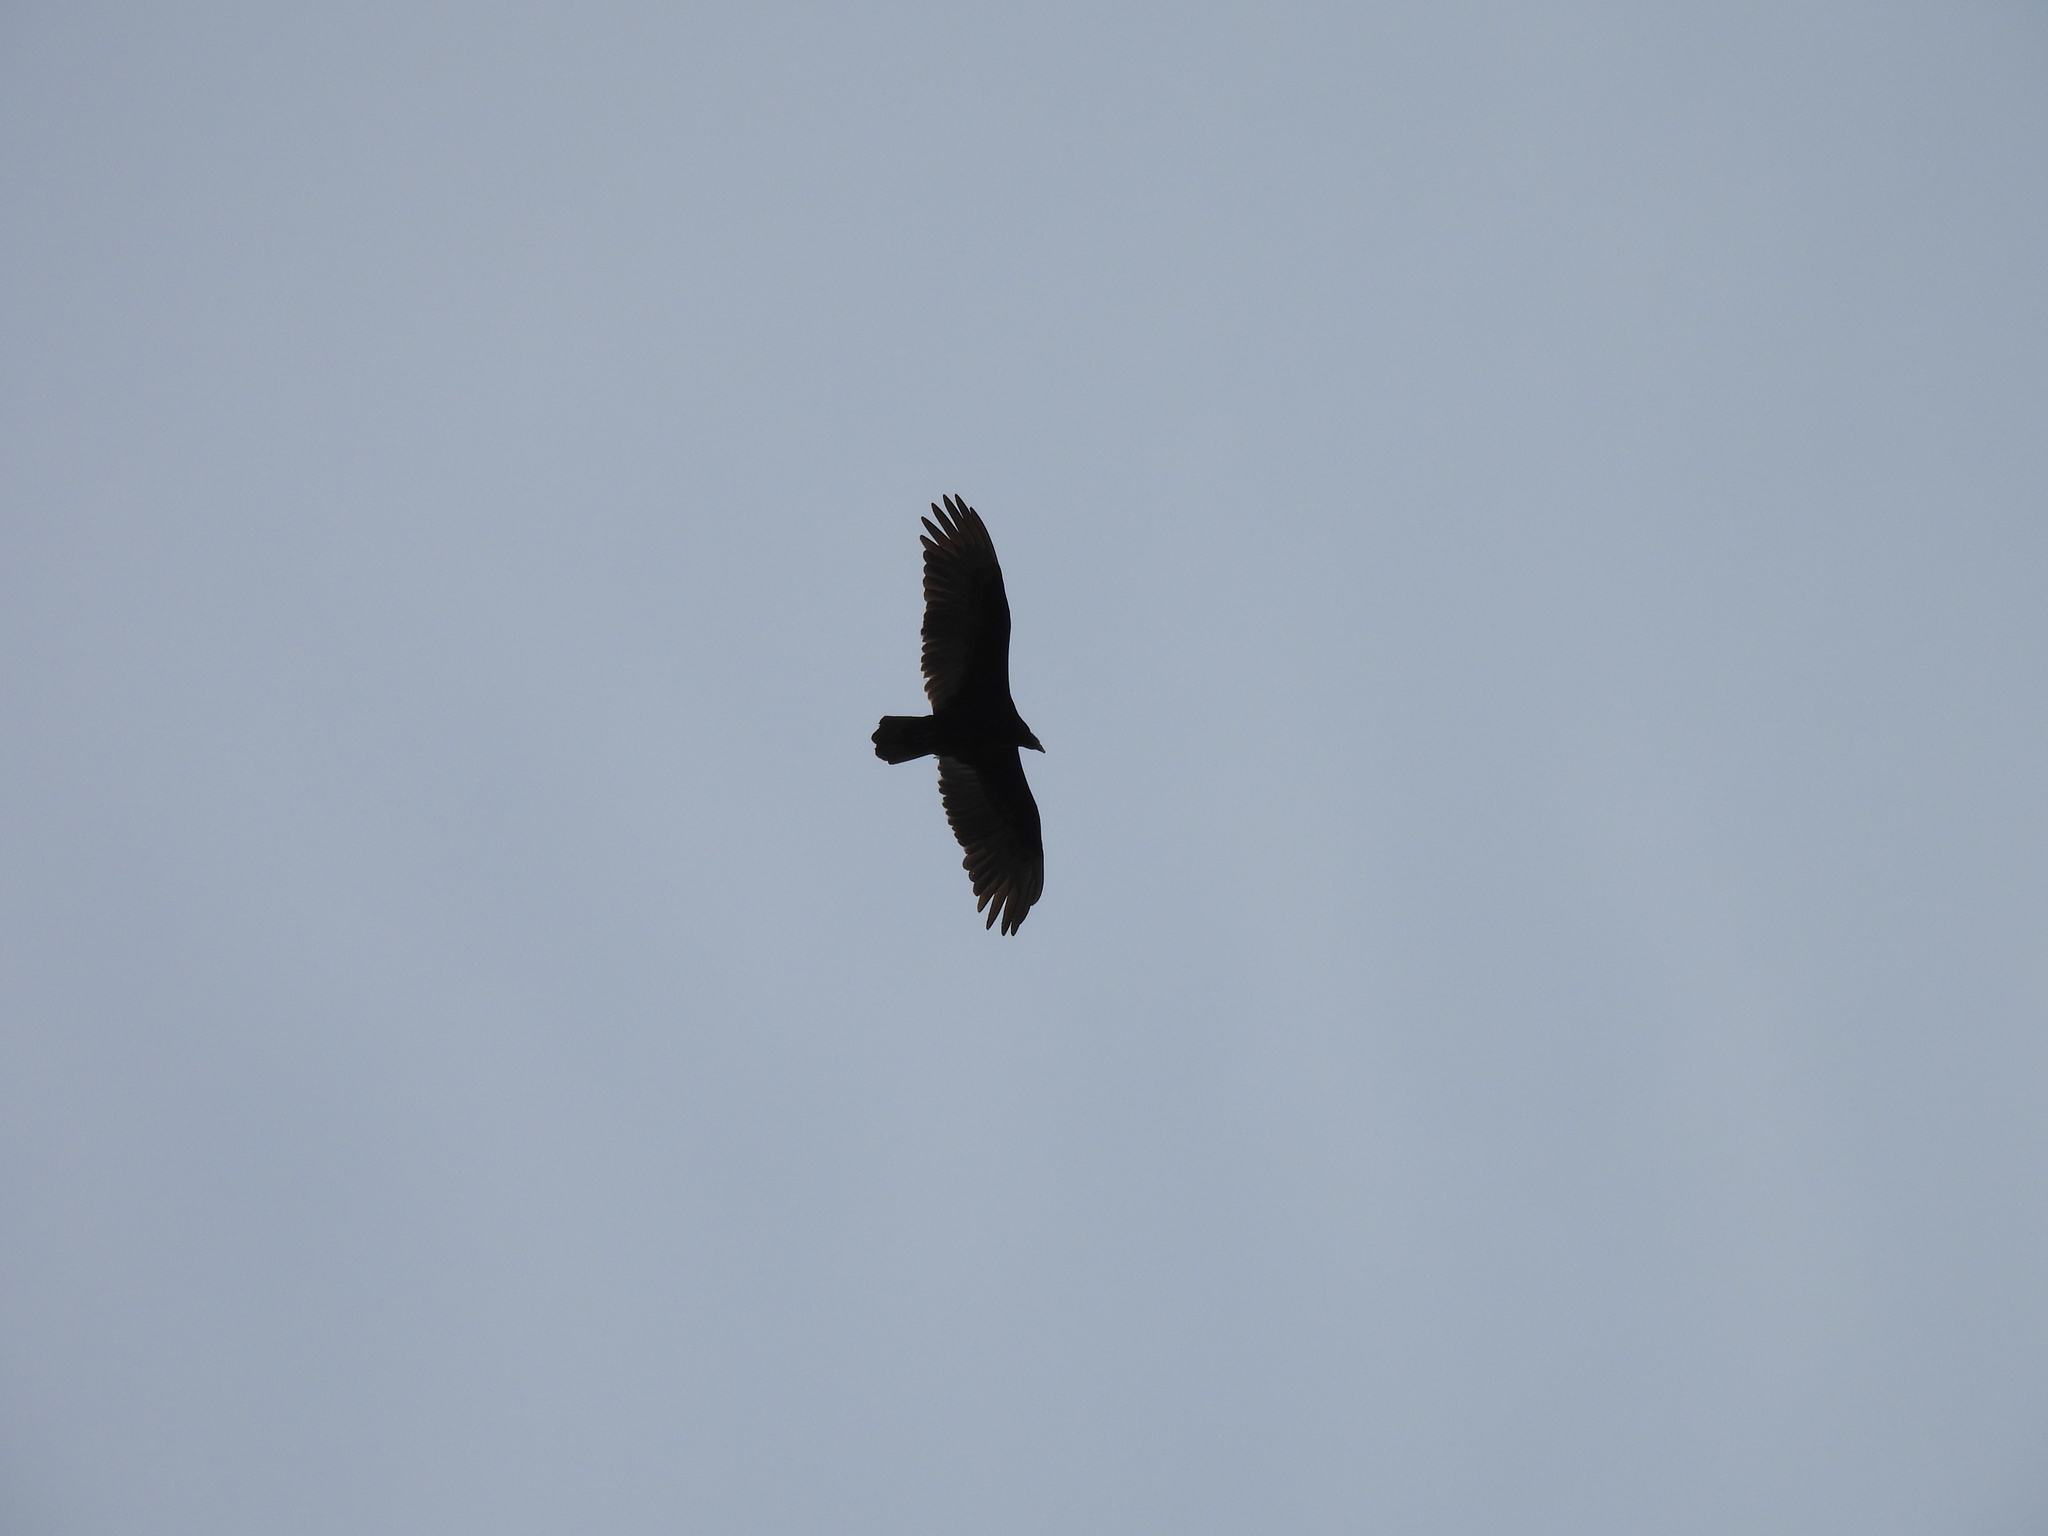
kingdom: Animalia
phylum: Chordata
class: Aves
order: Accipitriformes
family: Cathartidae
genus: Cathartes
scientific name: Cathartes aura
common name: Turkey vulture
